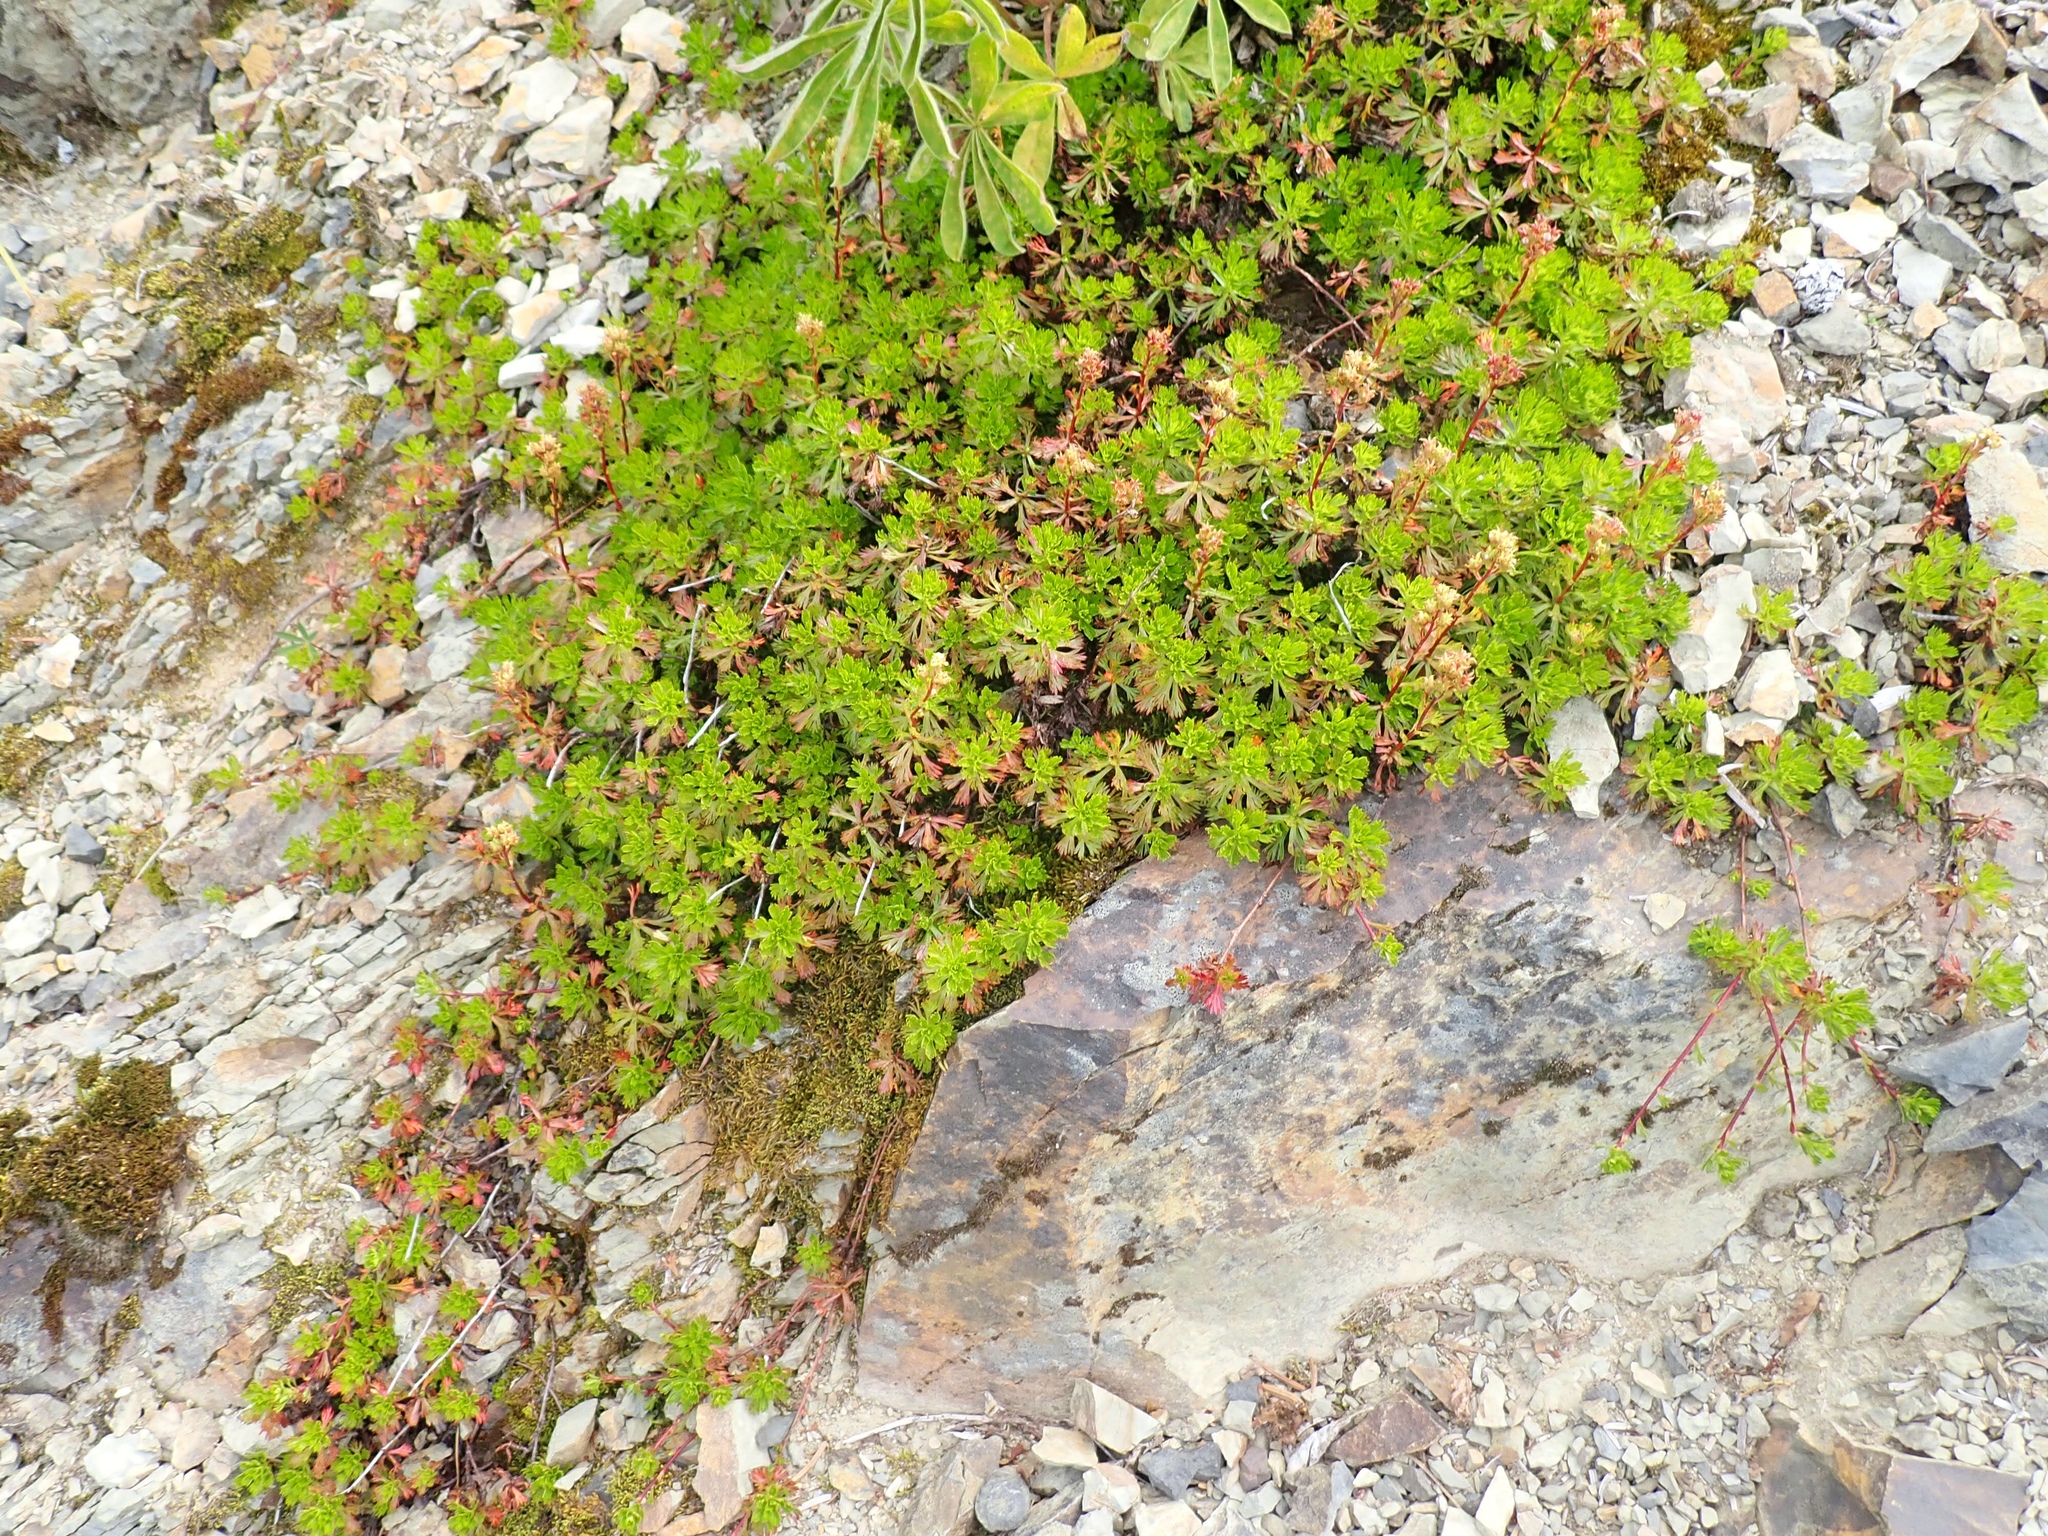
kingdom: Plantae
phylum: Tracheophyta
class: Magnoliopsida
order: Rosales
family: Rosaceae
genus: Luetkea
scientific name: Luetkea pectinata
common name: Partridgefoot
